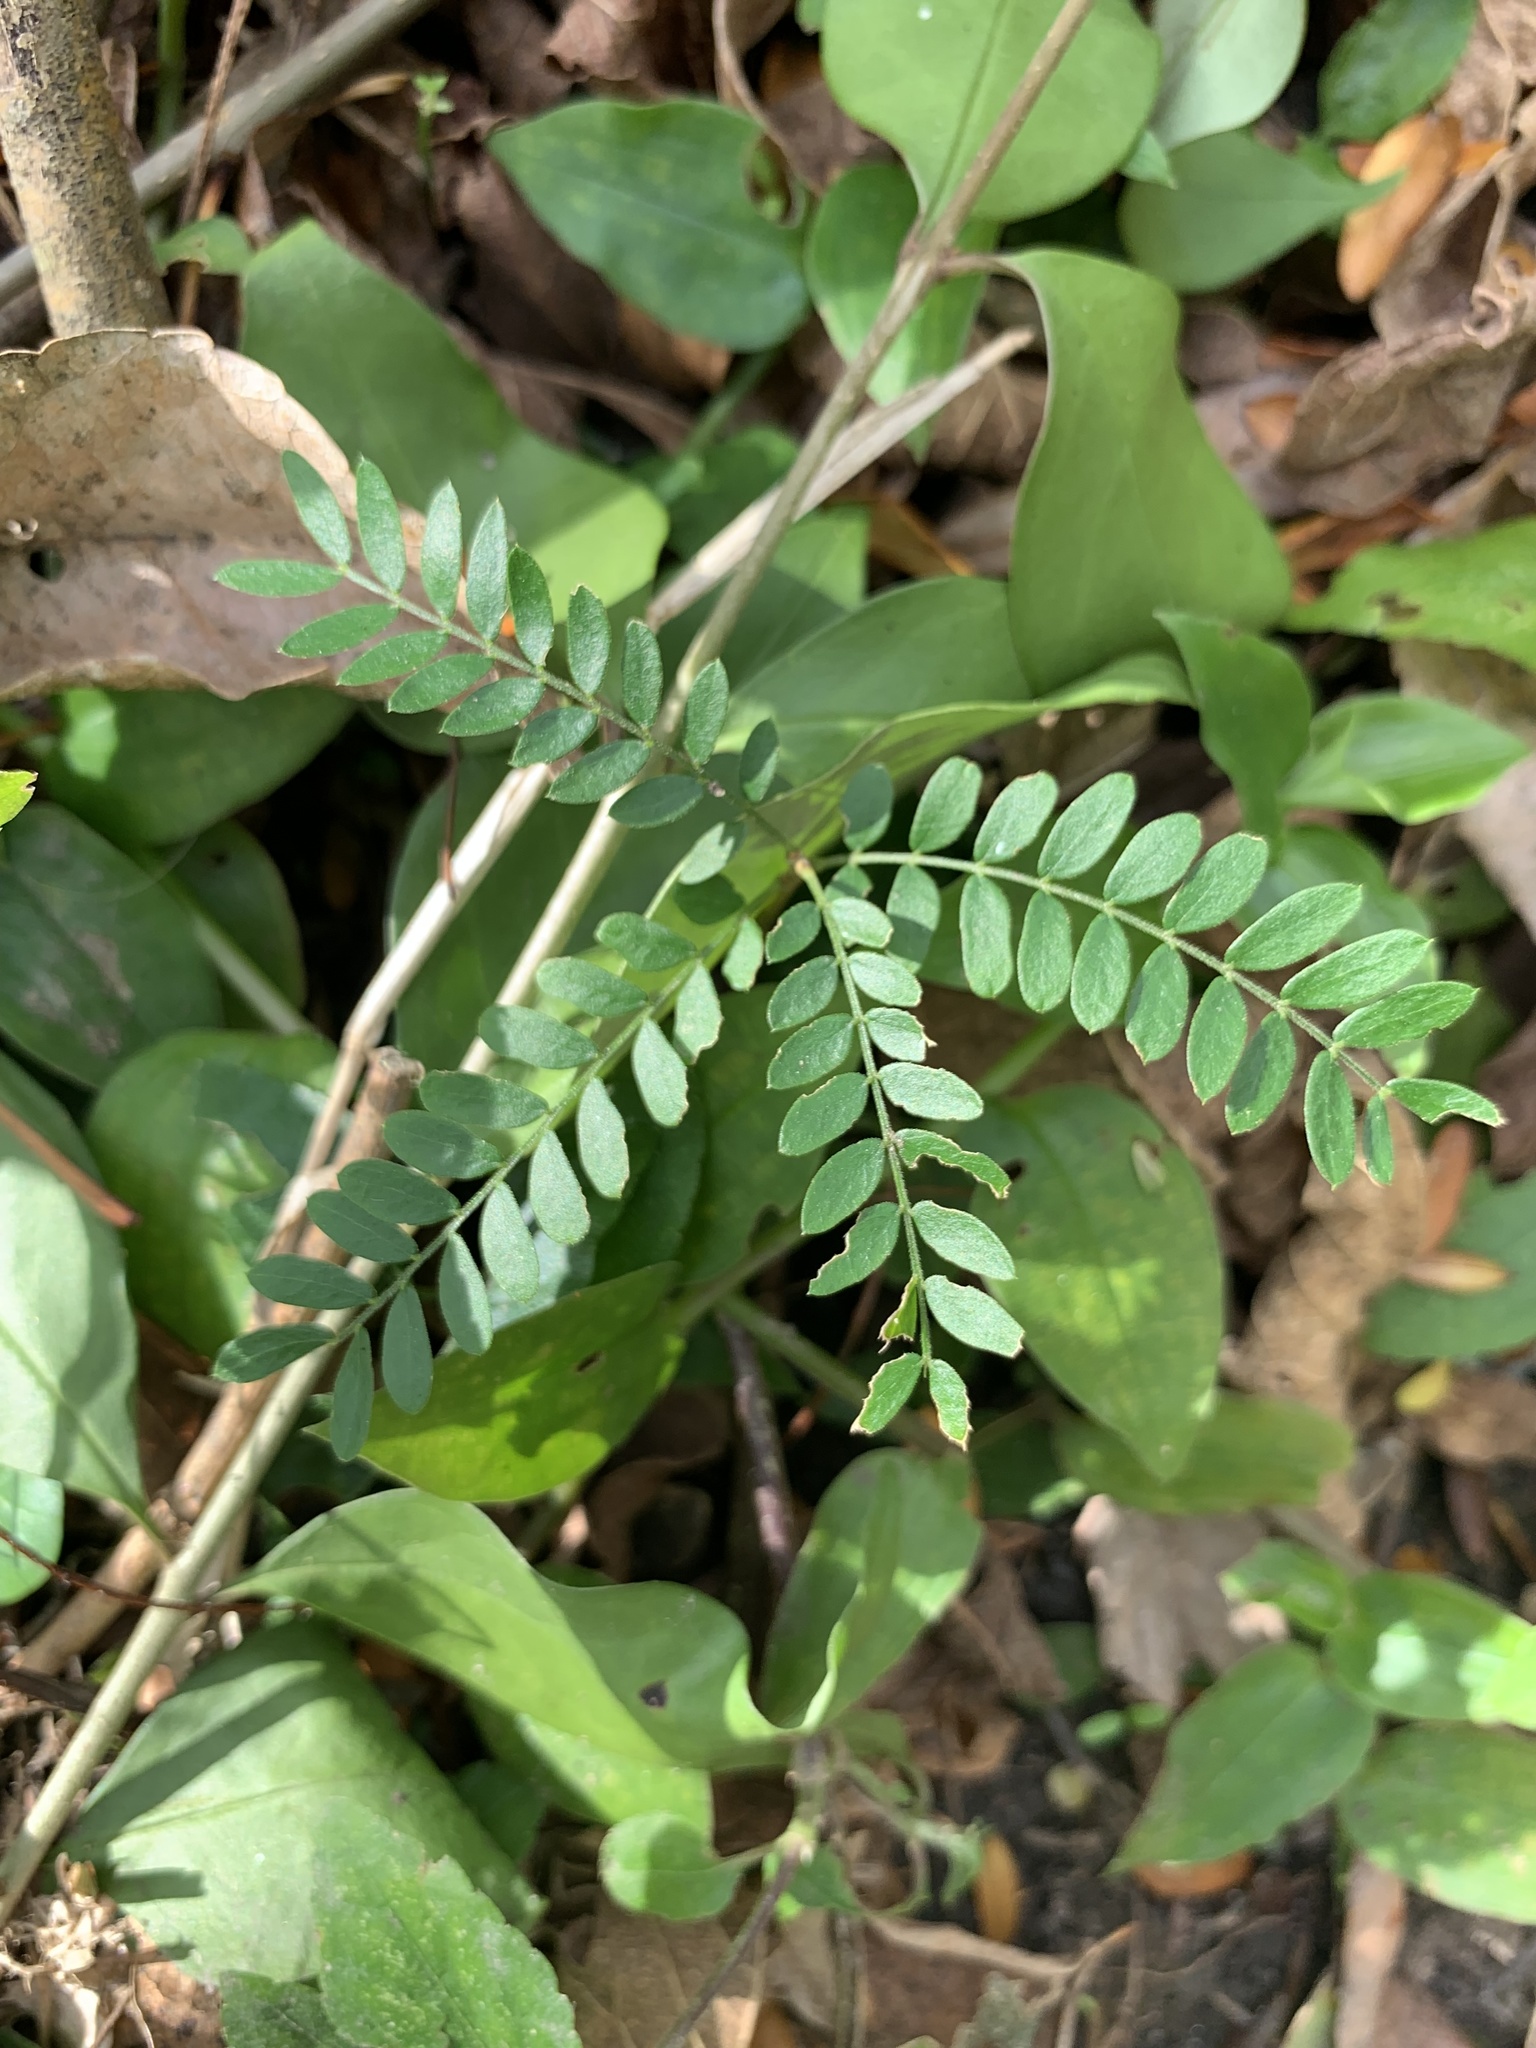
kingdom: Plantae
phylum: Tracheophyta
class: Magnoliopsida
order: Fabales
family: Fabaceae
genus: Gleditsia
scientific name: Gleditsia triacanthos
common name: Common honeylocust
